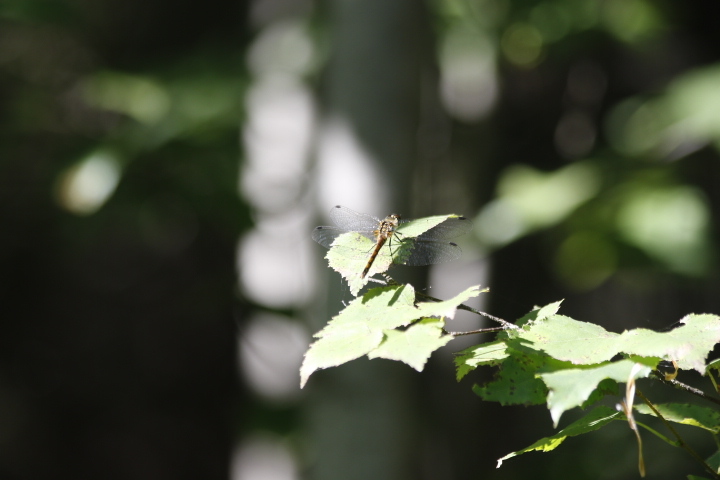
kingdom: Animalia
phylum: Arthropoda
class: Insecta
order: Odonata
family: Libellulidae
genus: Sympetrum
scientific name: Sympetrum danae
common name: Black darter
